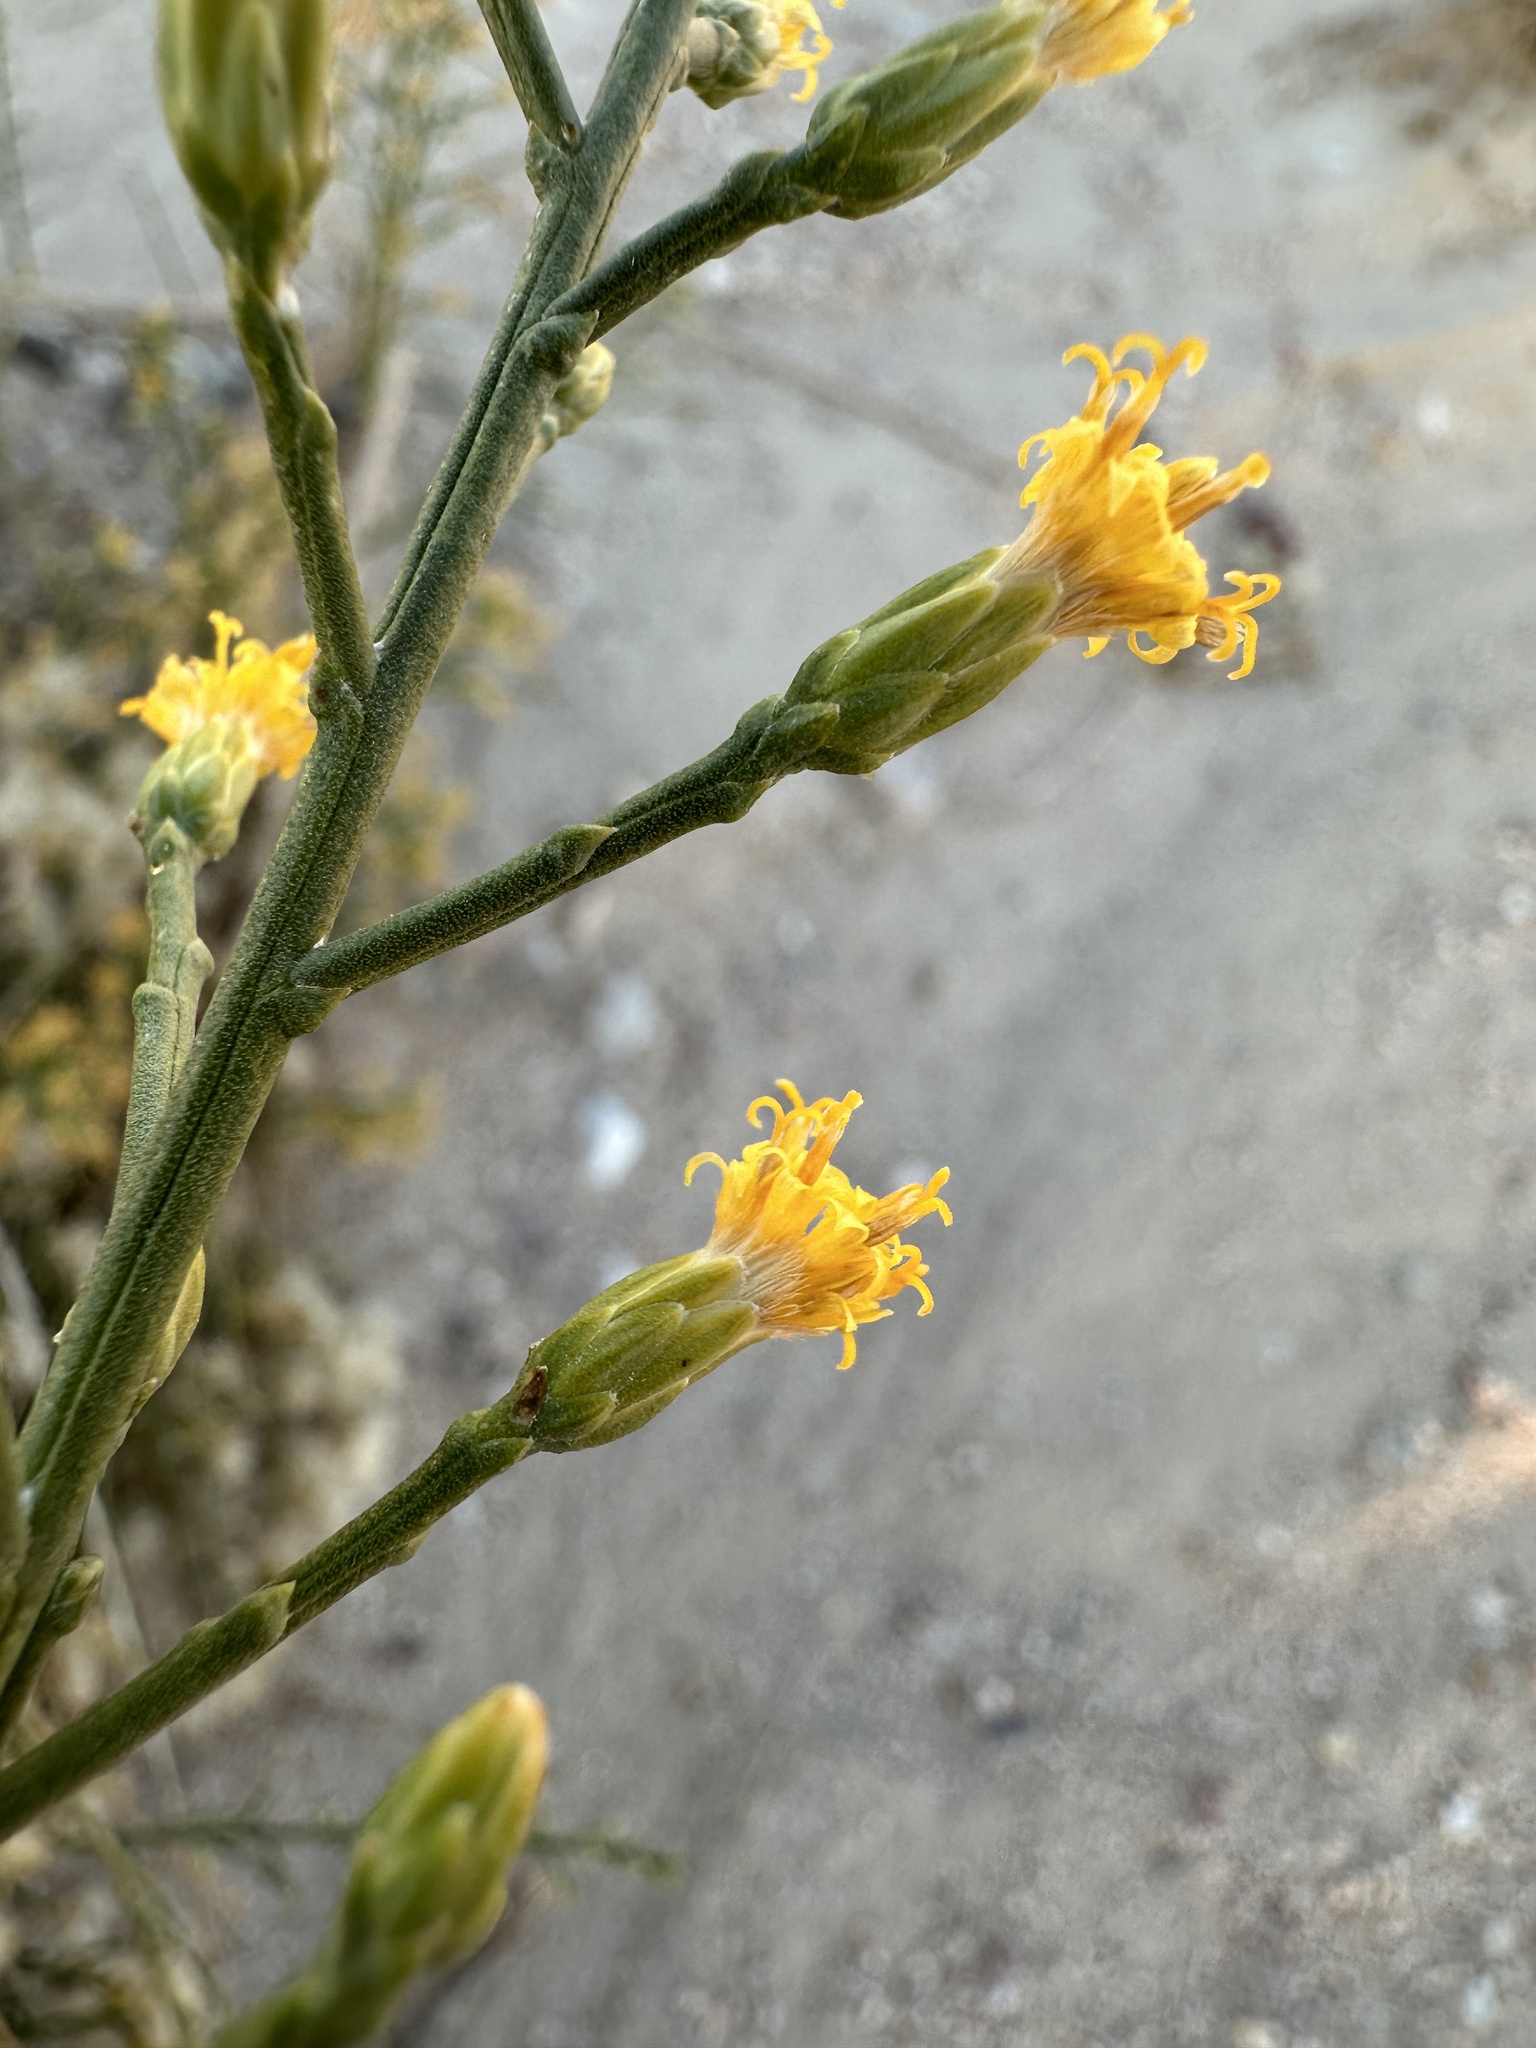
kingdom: Plantae
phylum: Tracheophyta
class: Magnoliopsida
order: Asterales
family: Asteraceae
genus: Lepidospartum
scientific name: Lepidospartum squamatum
